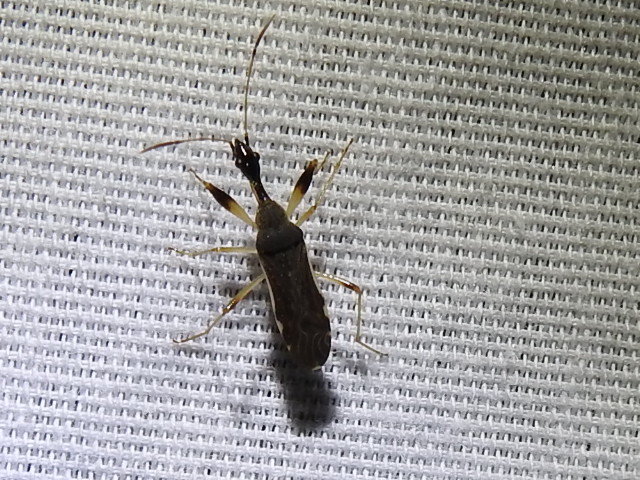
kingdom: Animalia
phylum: Arthropoda
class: Insecta
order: Hemiptera
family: Rhyparochromidae
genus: Myodocha
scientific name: Myodocha serripes
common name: Long-necked seed bug
